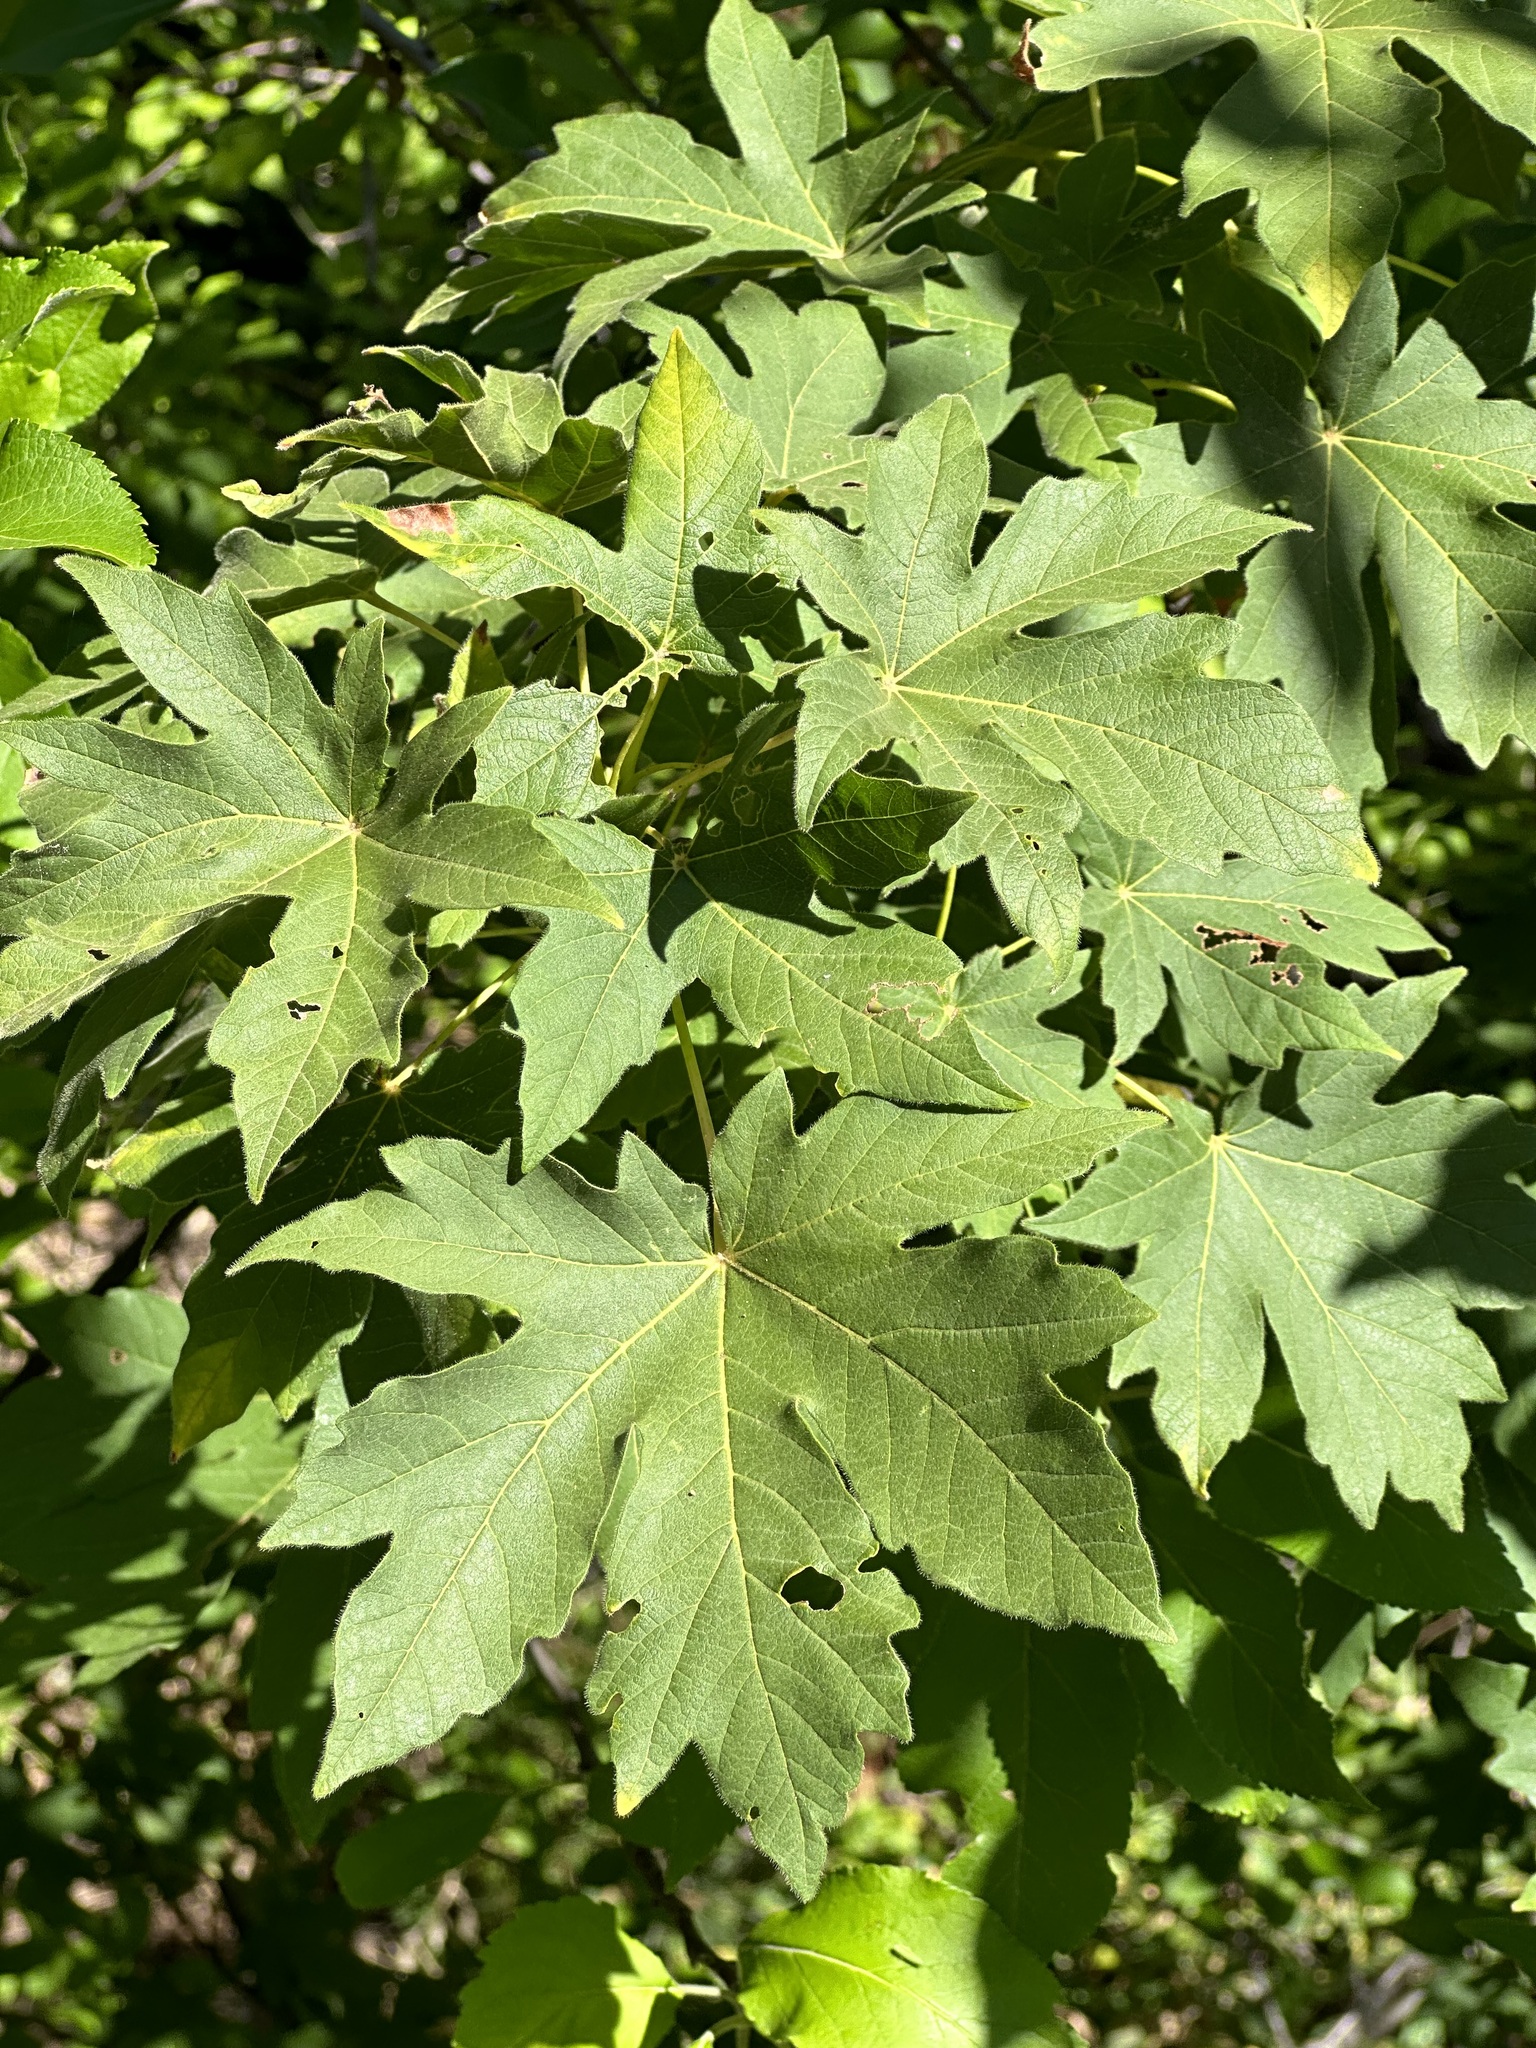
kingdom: Plantae
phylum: Tracheophyta
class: Magnoliopsida
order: Sapindales
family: Sapindaceae
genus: Acer
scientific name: Acer macrophyllum
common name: Oregon maple
